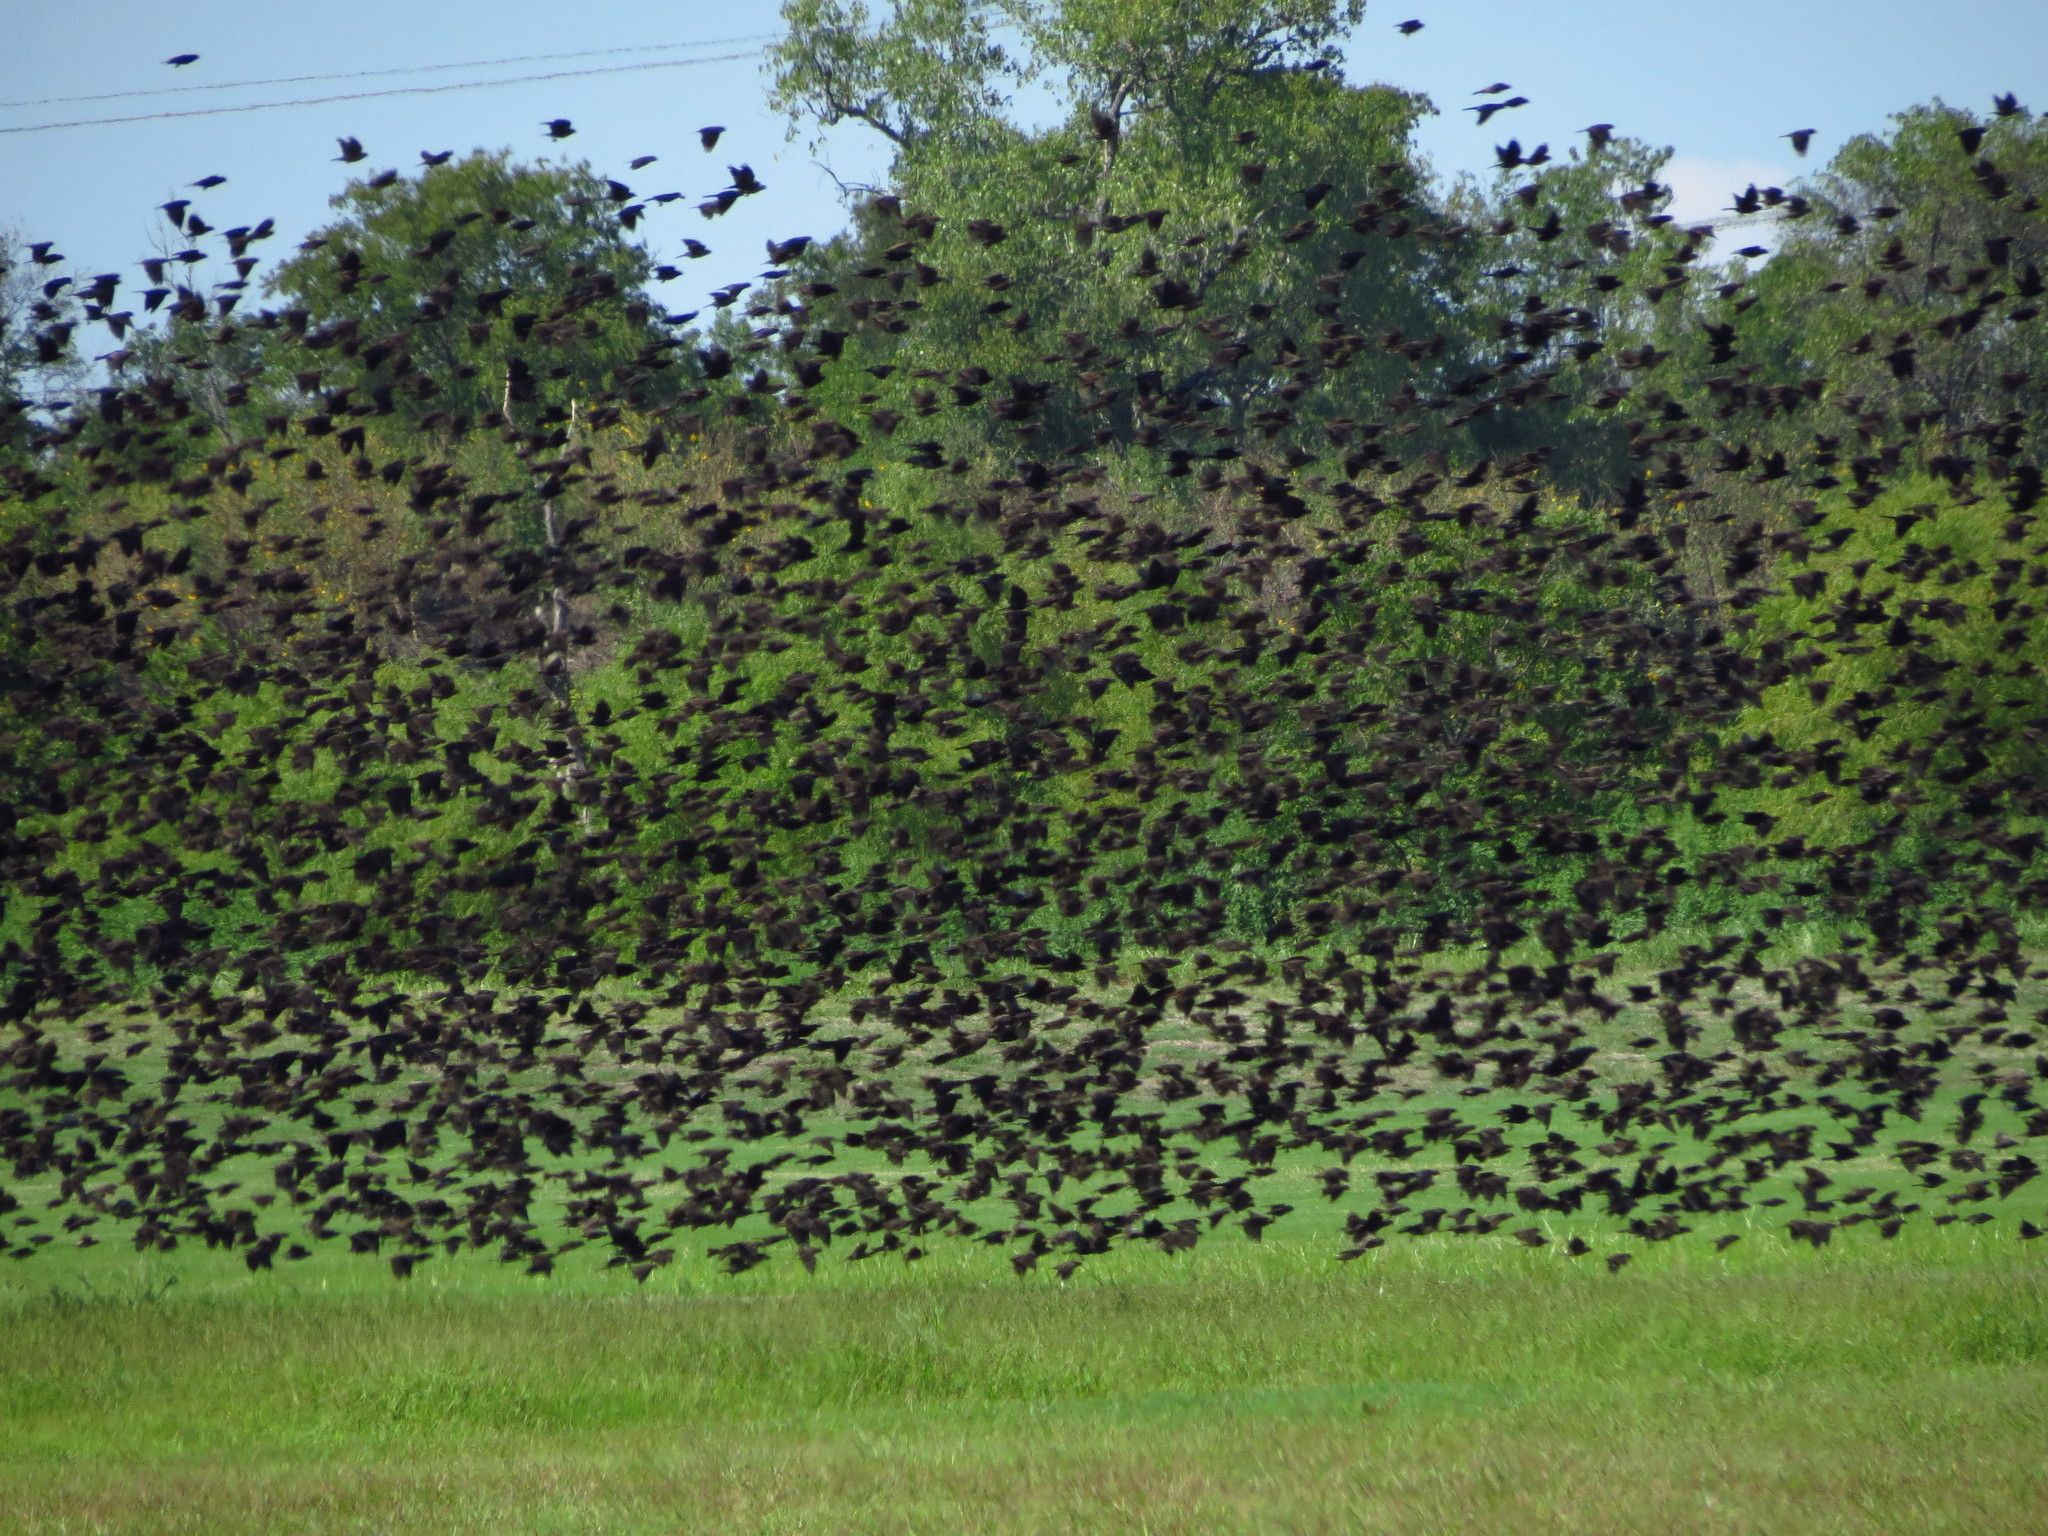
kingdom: Animalia
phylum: Chordata
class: Aves
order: Passeriformes
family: Icteridae
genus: Molothrus
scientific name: Molothrus ater
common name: Brown-headed cowbird
